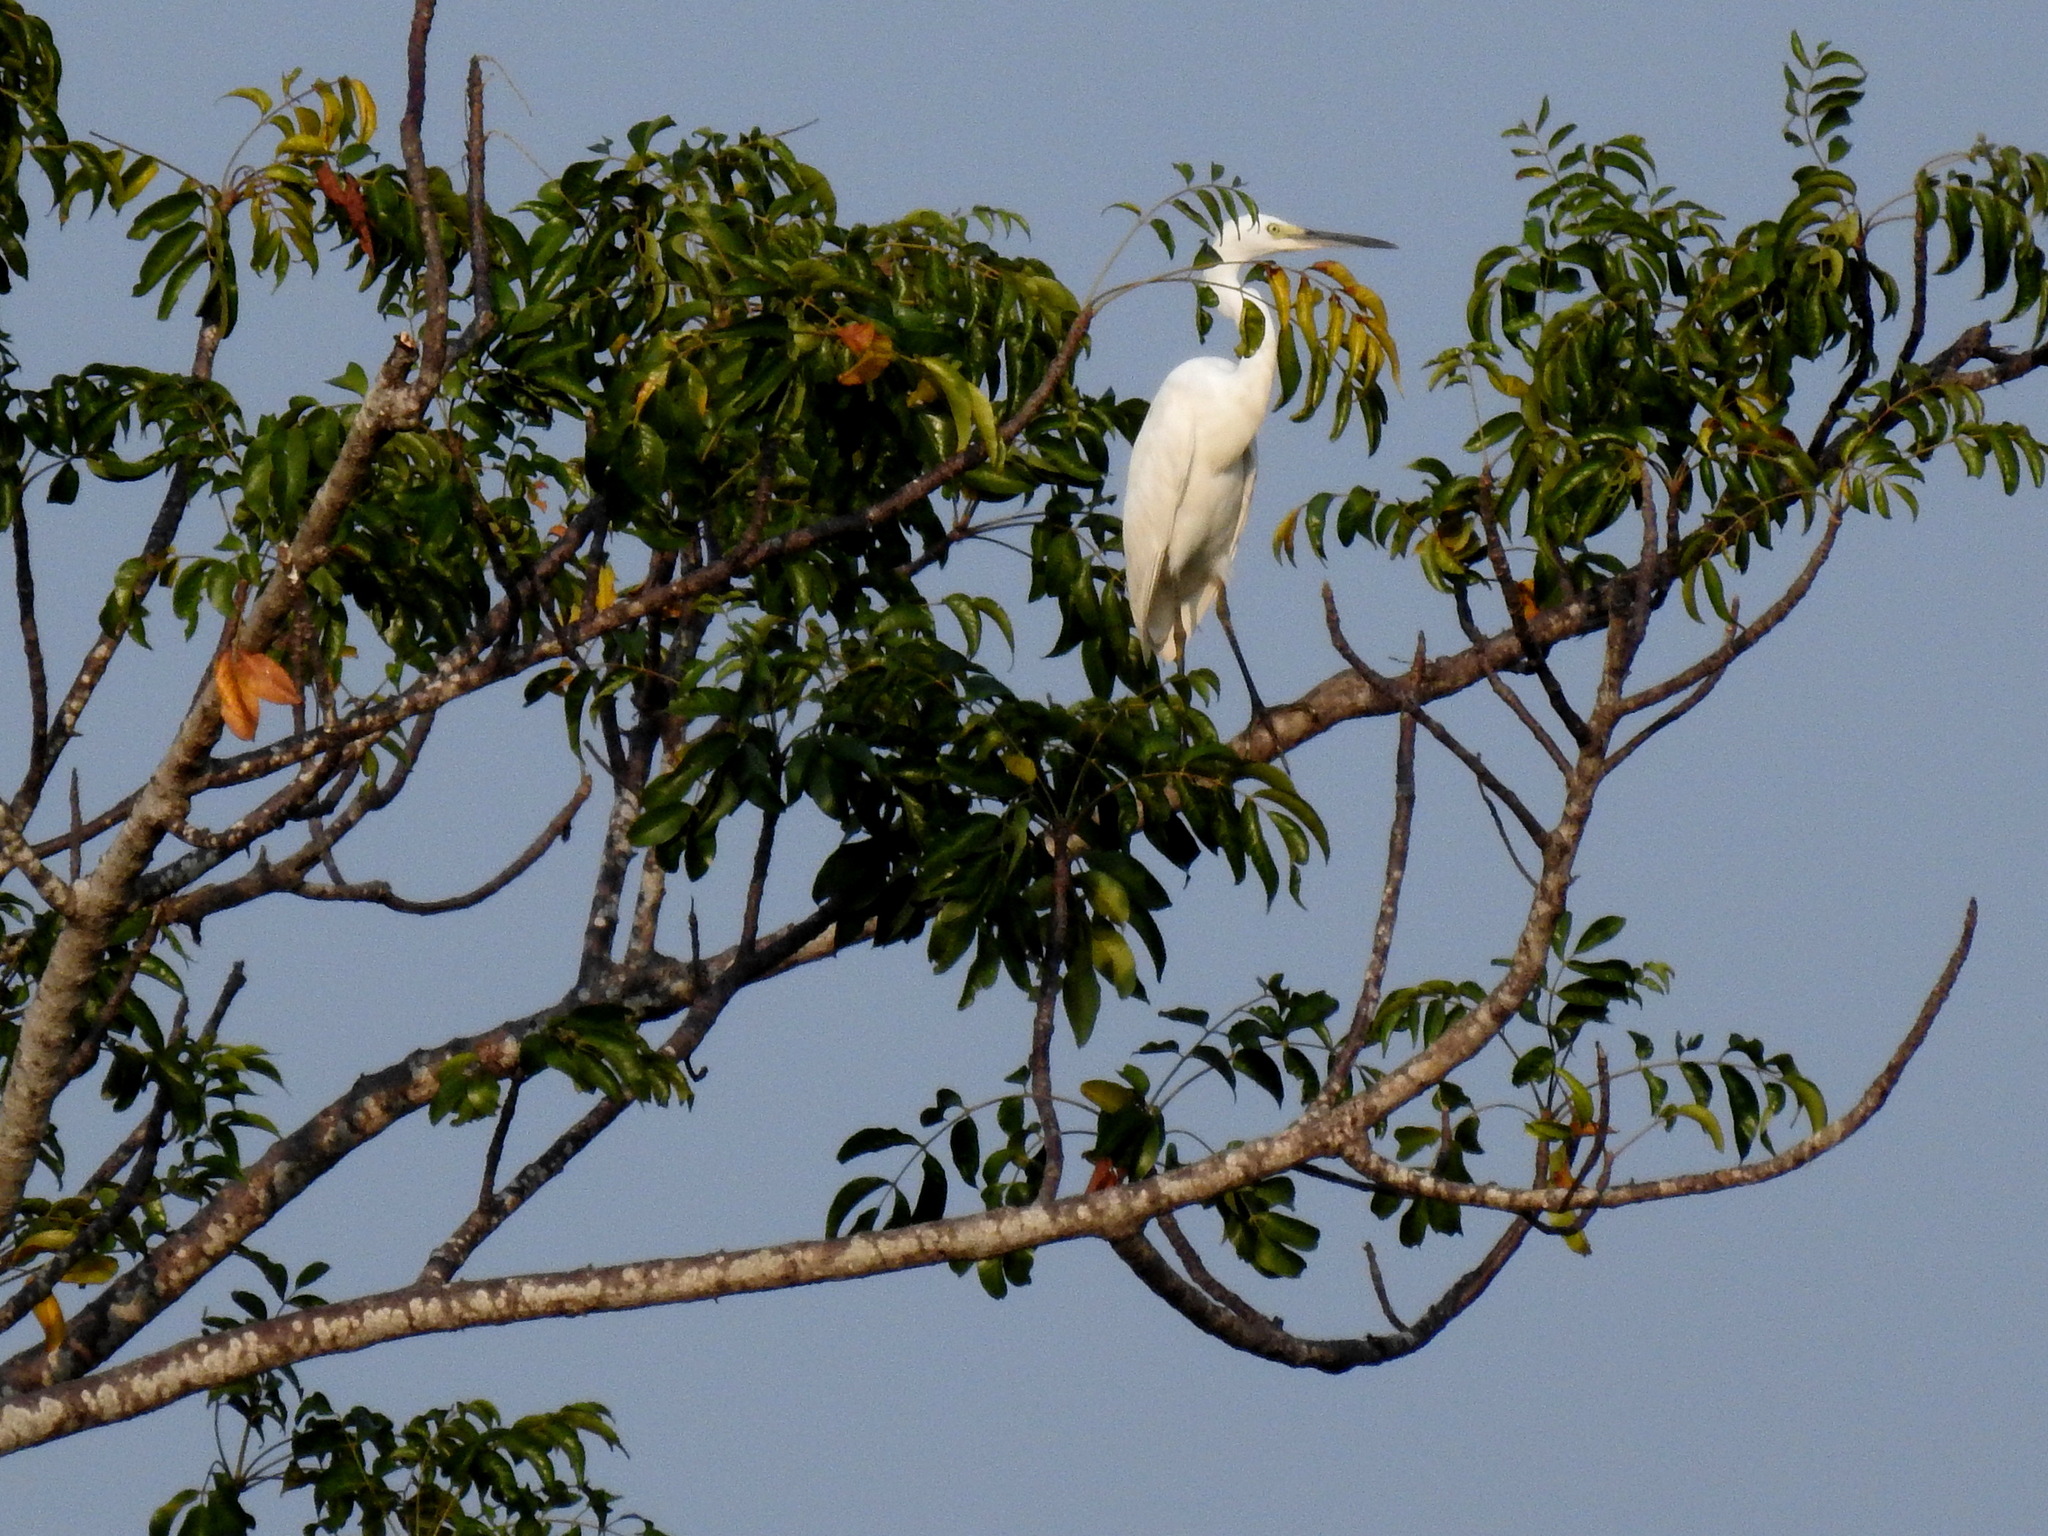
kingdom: Animalia
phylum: Chordata
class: Aves
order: Pelecaniformes
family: Ardeidae
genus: Egretta
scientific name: Egretta garzetta
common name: Little egret
